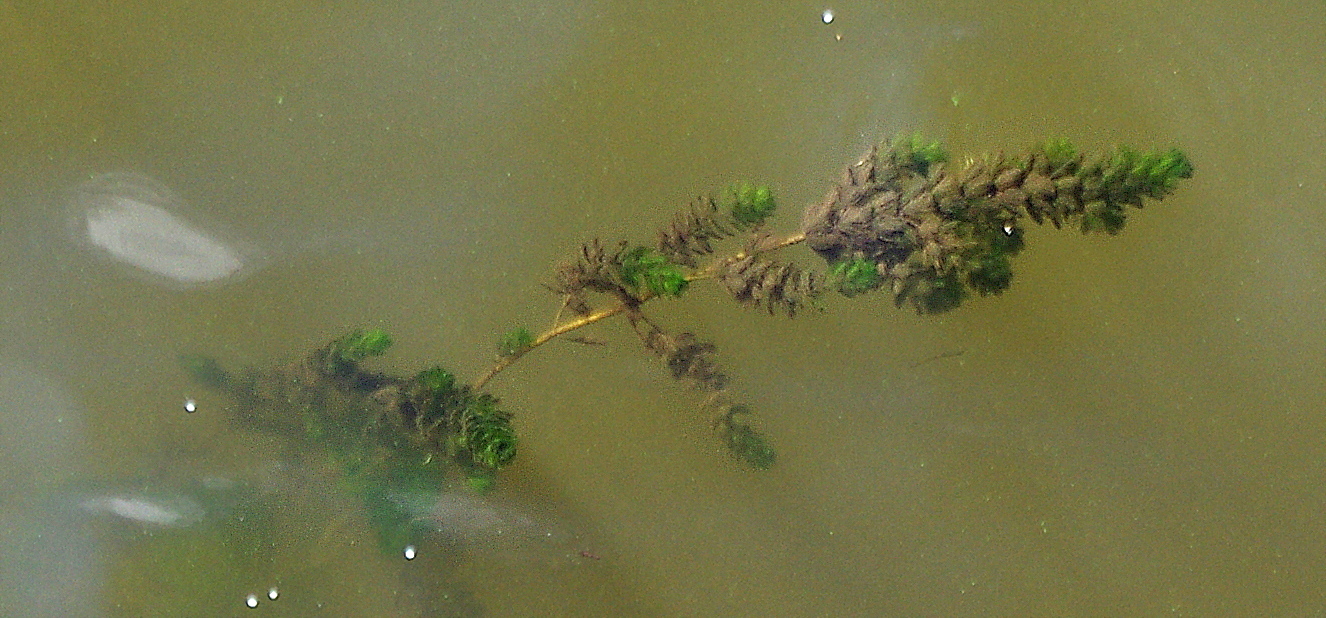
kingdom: Plantae
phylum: Tracheophyta
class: Magnoliopsida
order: Saxifragales
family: Haloragaceae
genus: Myriophyllum
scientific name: Myriophyllum spicatum
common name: Spiked water-milfoil
